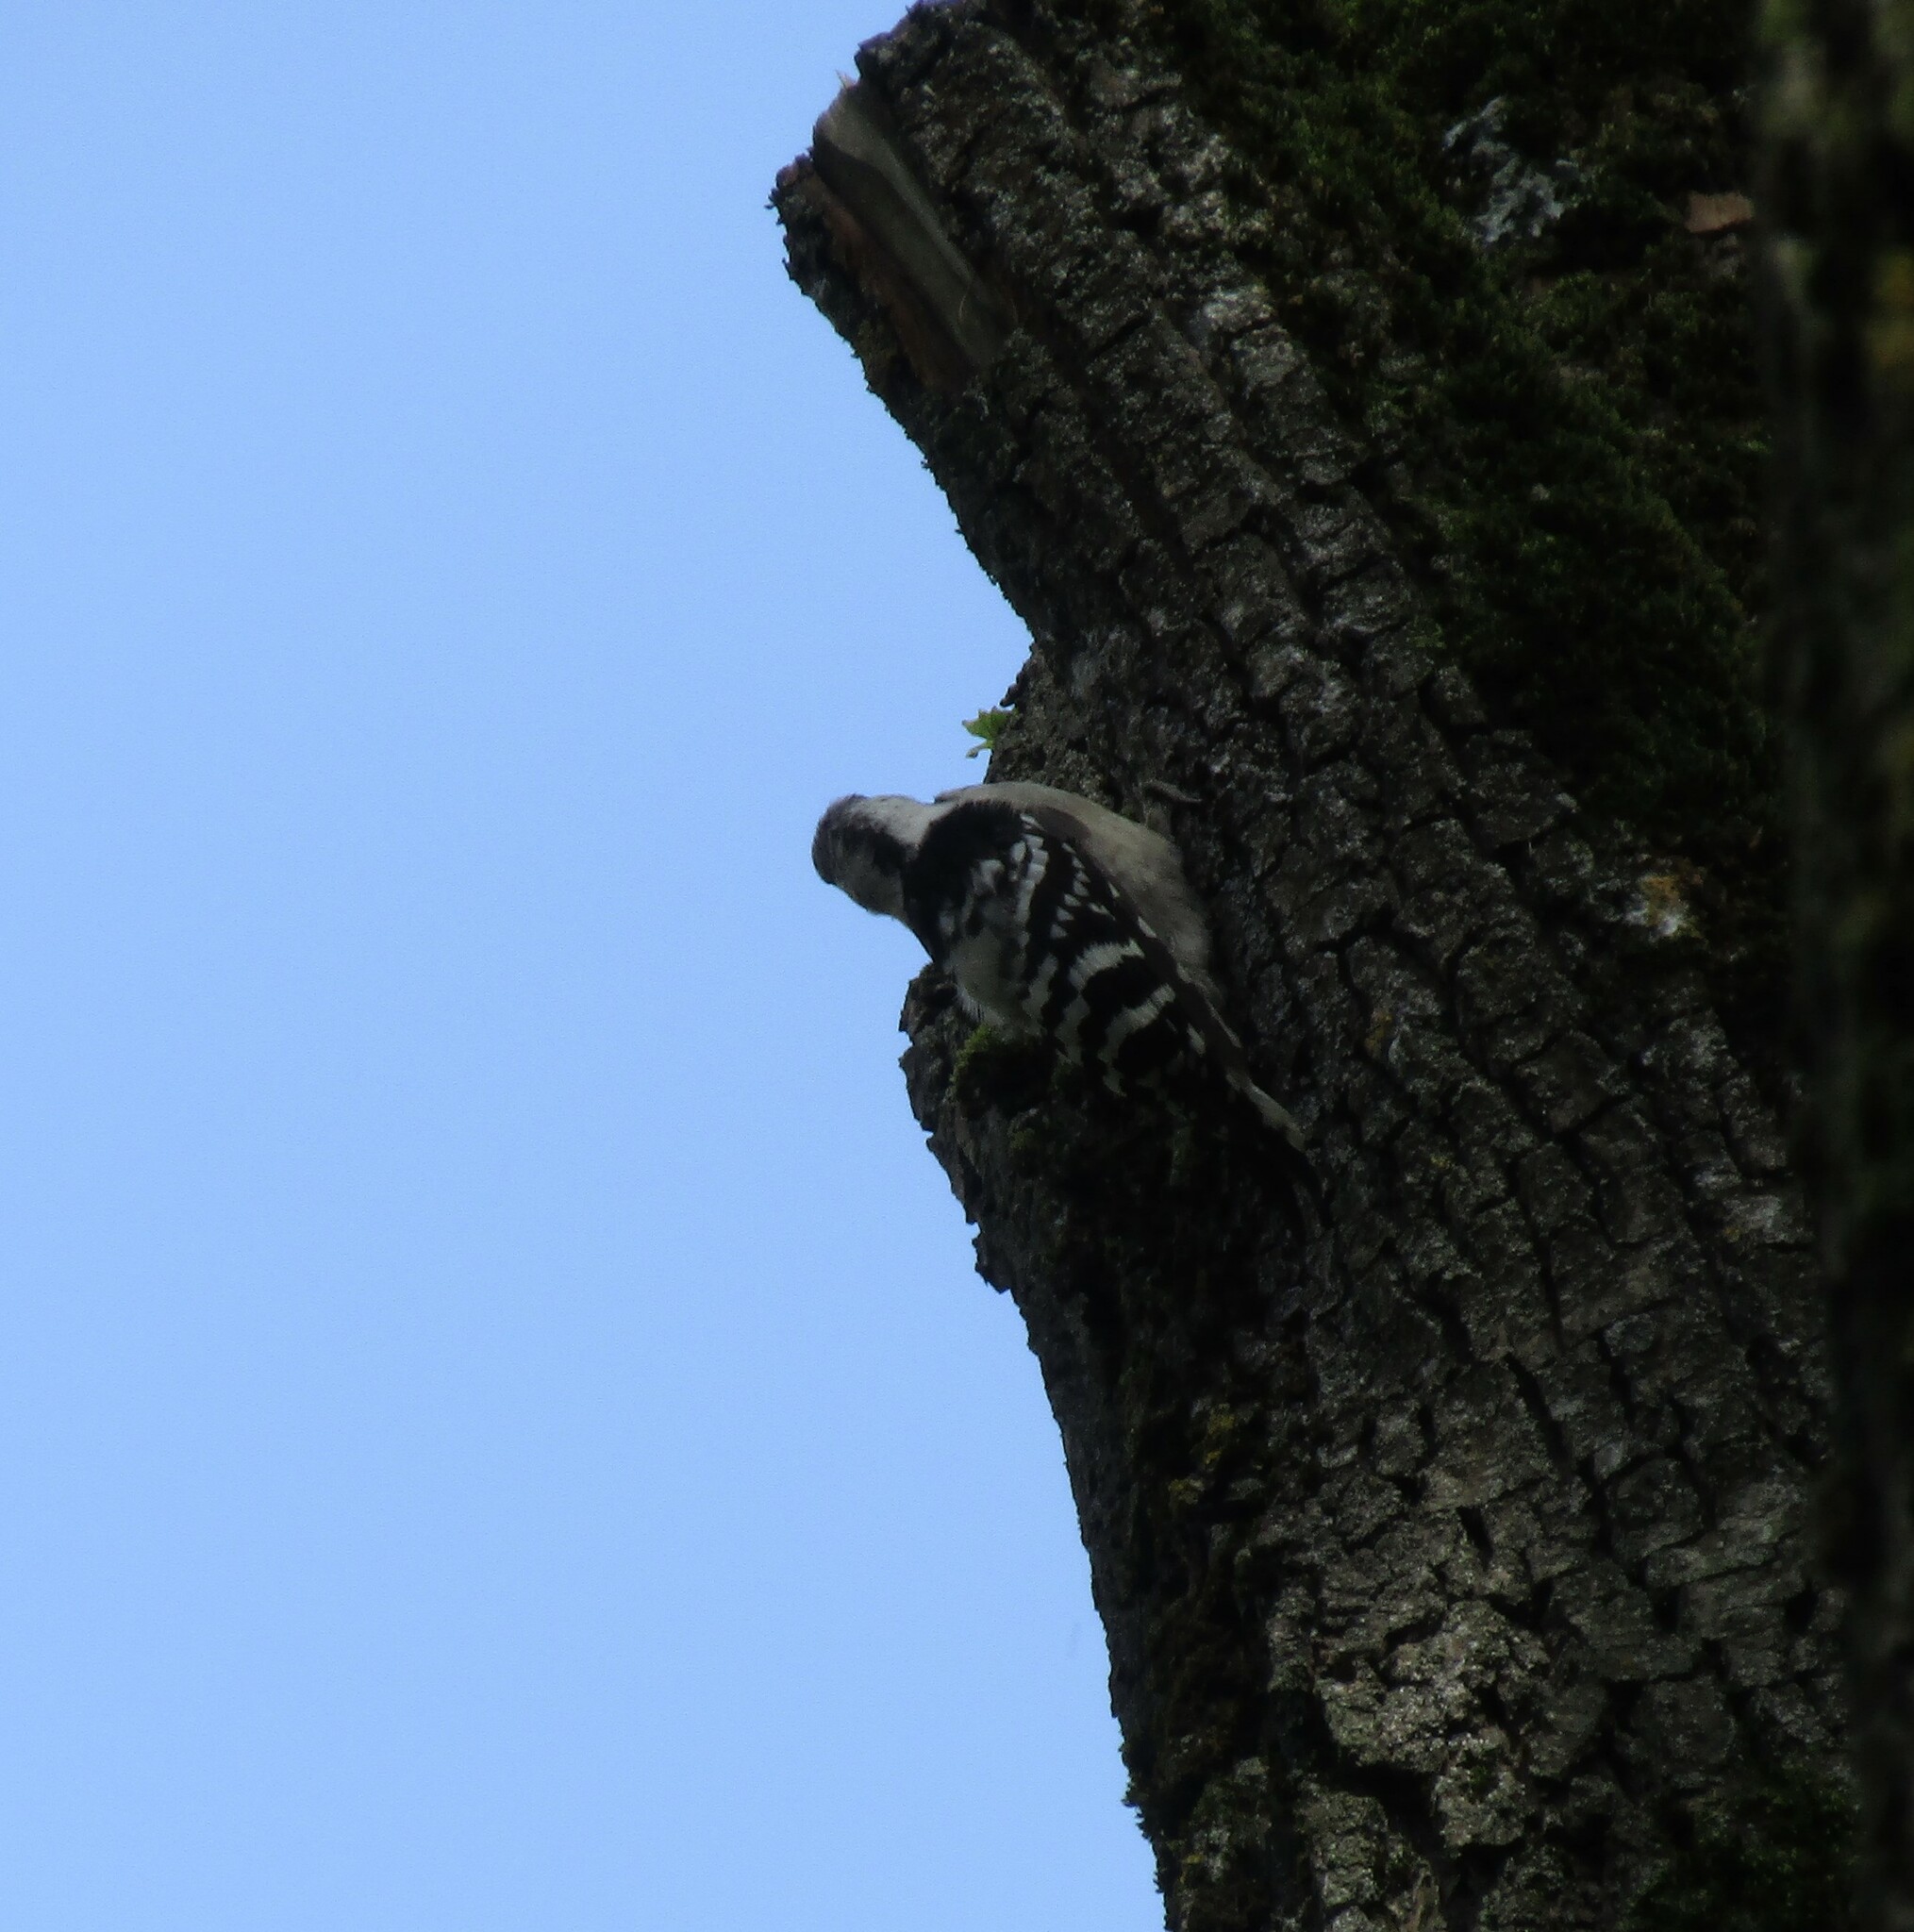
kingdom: Animalia
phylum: Chordata
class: Aves
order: Piciformes
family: Picidae
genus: Dryobates
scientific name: Dryobates minor
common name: Lesser spotted woodpecker
